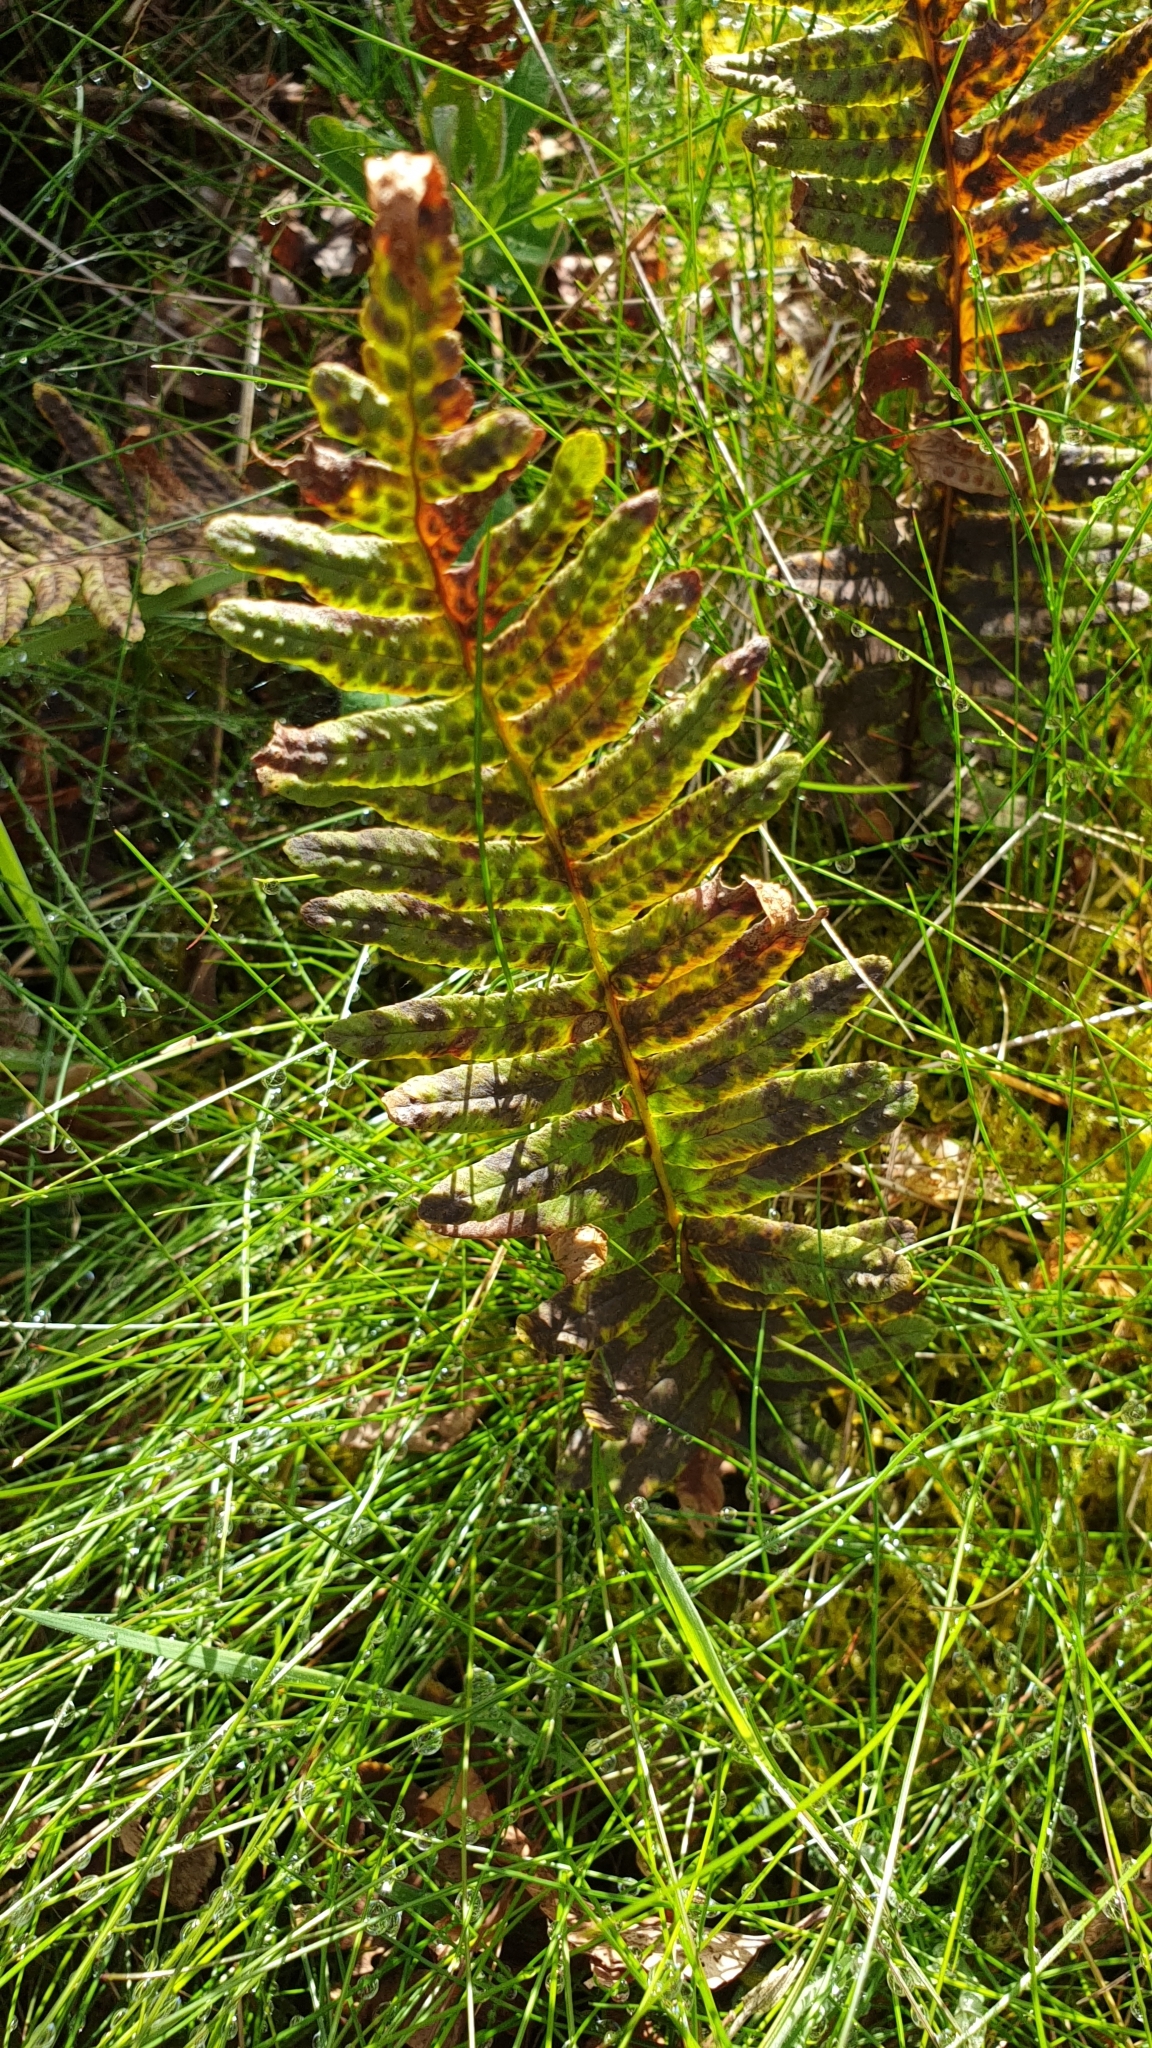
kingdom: Plantae
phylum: Tracheophyta
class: Polypodiopsida
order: Polypodiales
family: Polypodiaceae
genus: Polypodium
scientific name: Polypodium vulgare
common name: Common polypody
